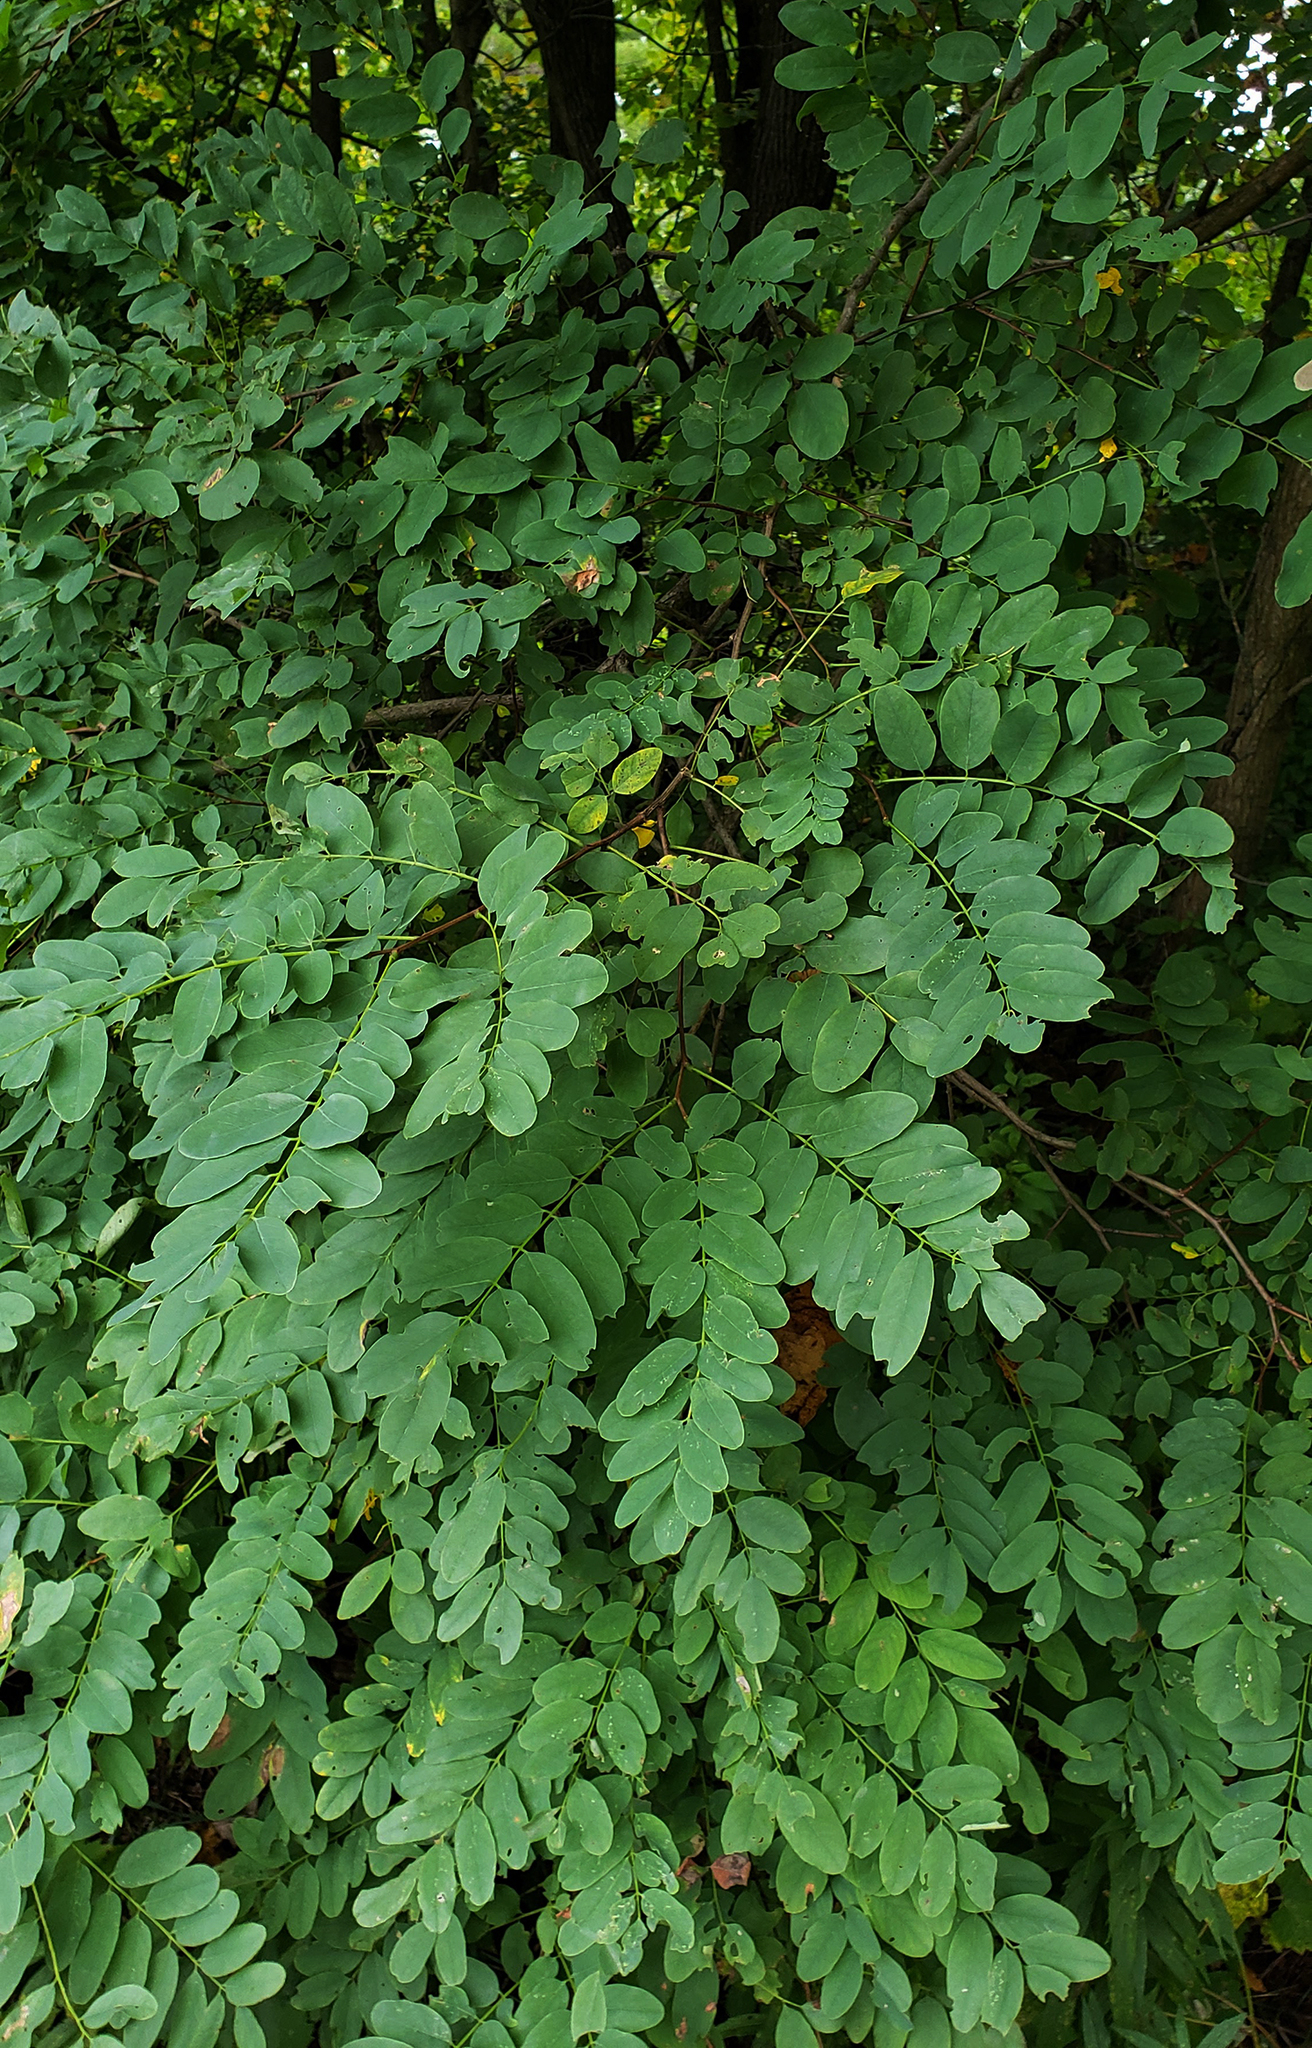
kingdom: Plantae
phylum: Tracheophyta
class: Magnoliopsida
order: Fabales
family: Fabaceae
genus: Robinia
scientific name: Robinia pseudoacacia
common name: Black locust
